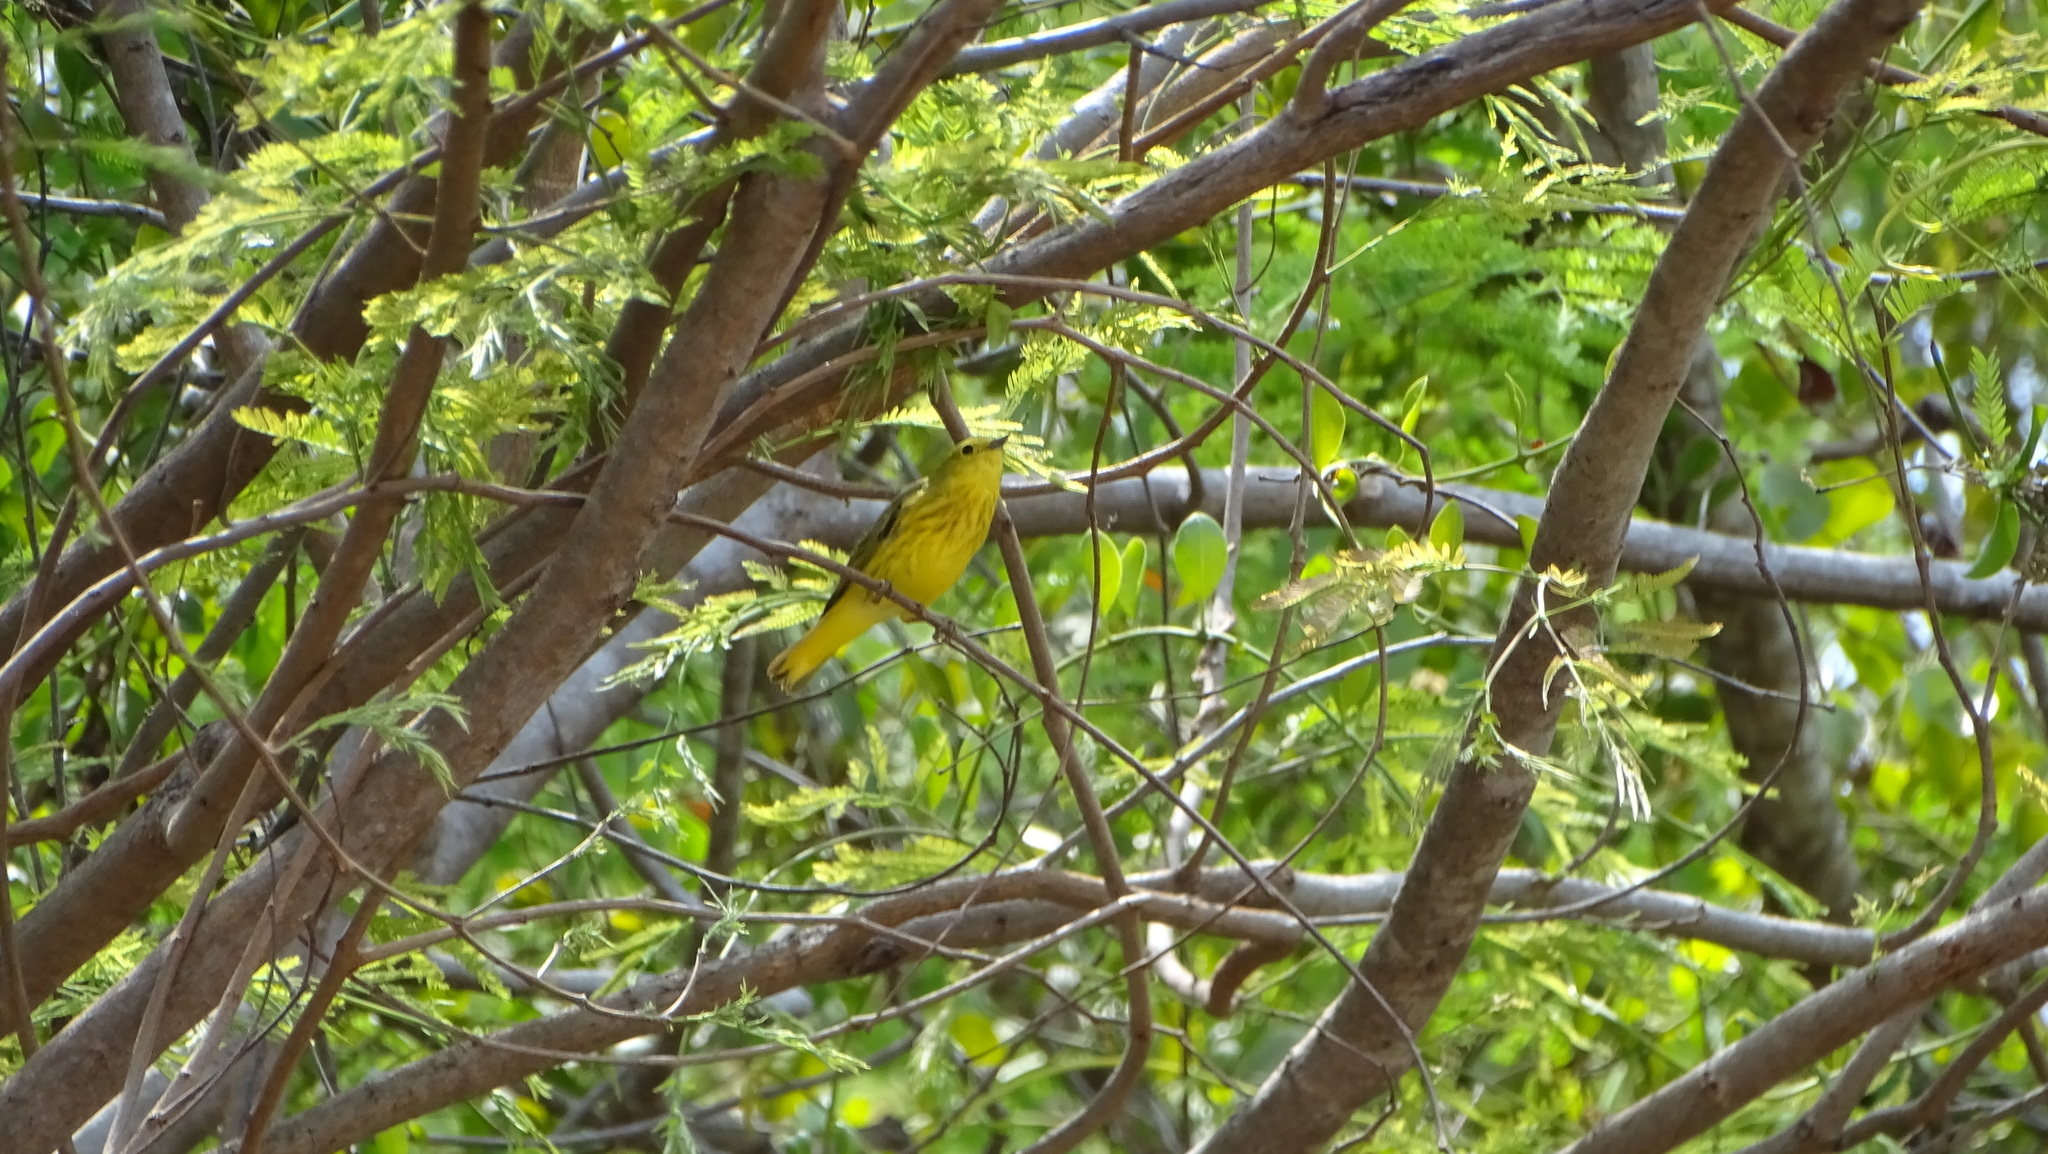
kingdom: Animalia
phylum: Chordata
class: Aves
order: Passeriformes
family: Parulidae
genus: Setophaga
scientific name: Setophaga petechia
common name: Yellow warbler
